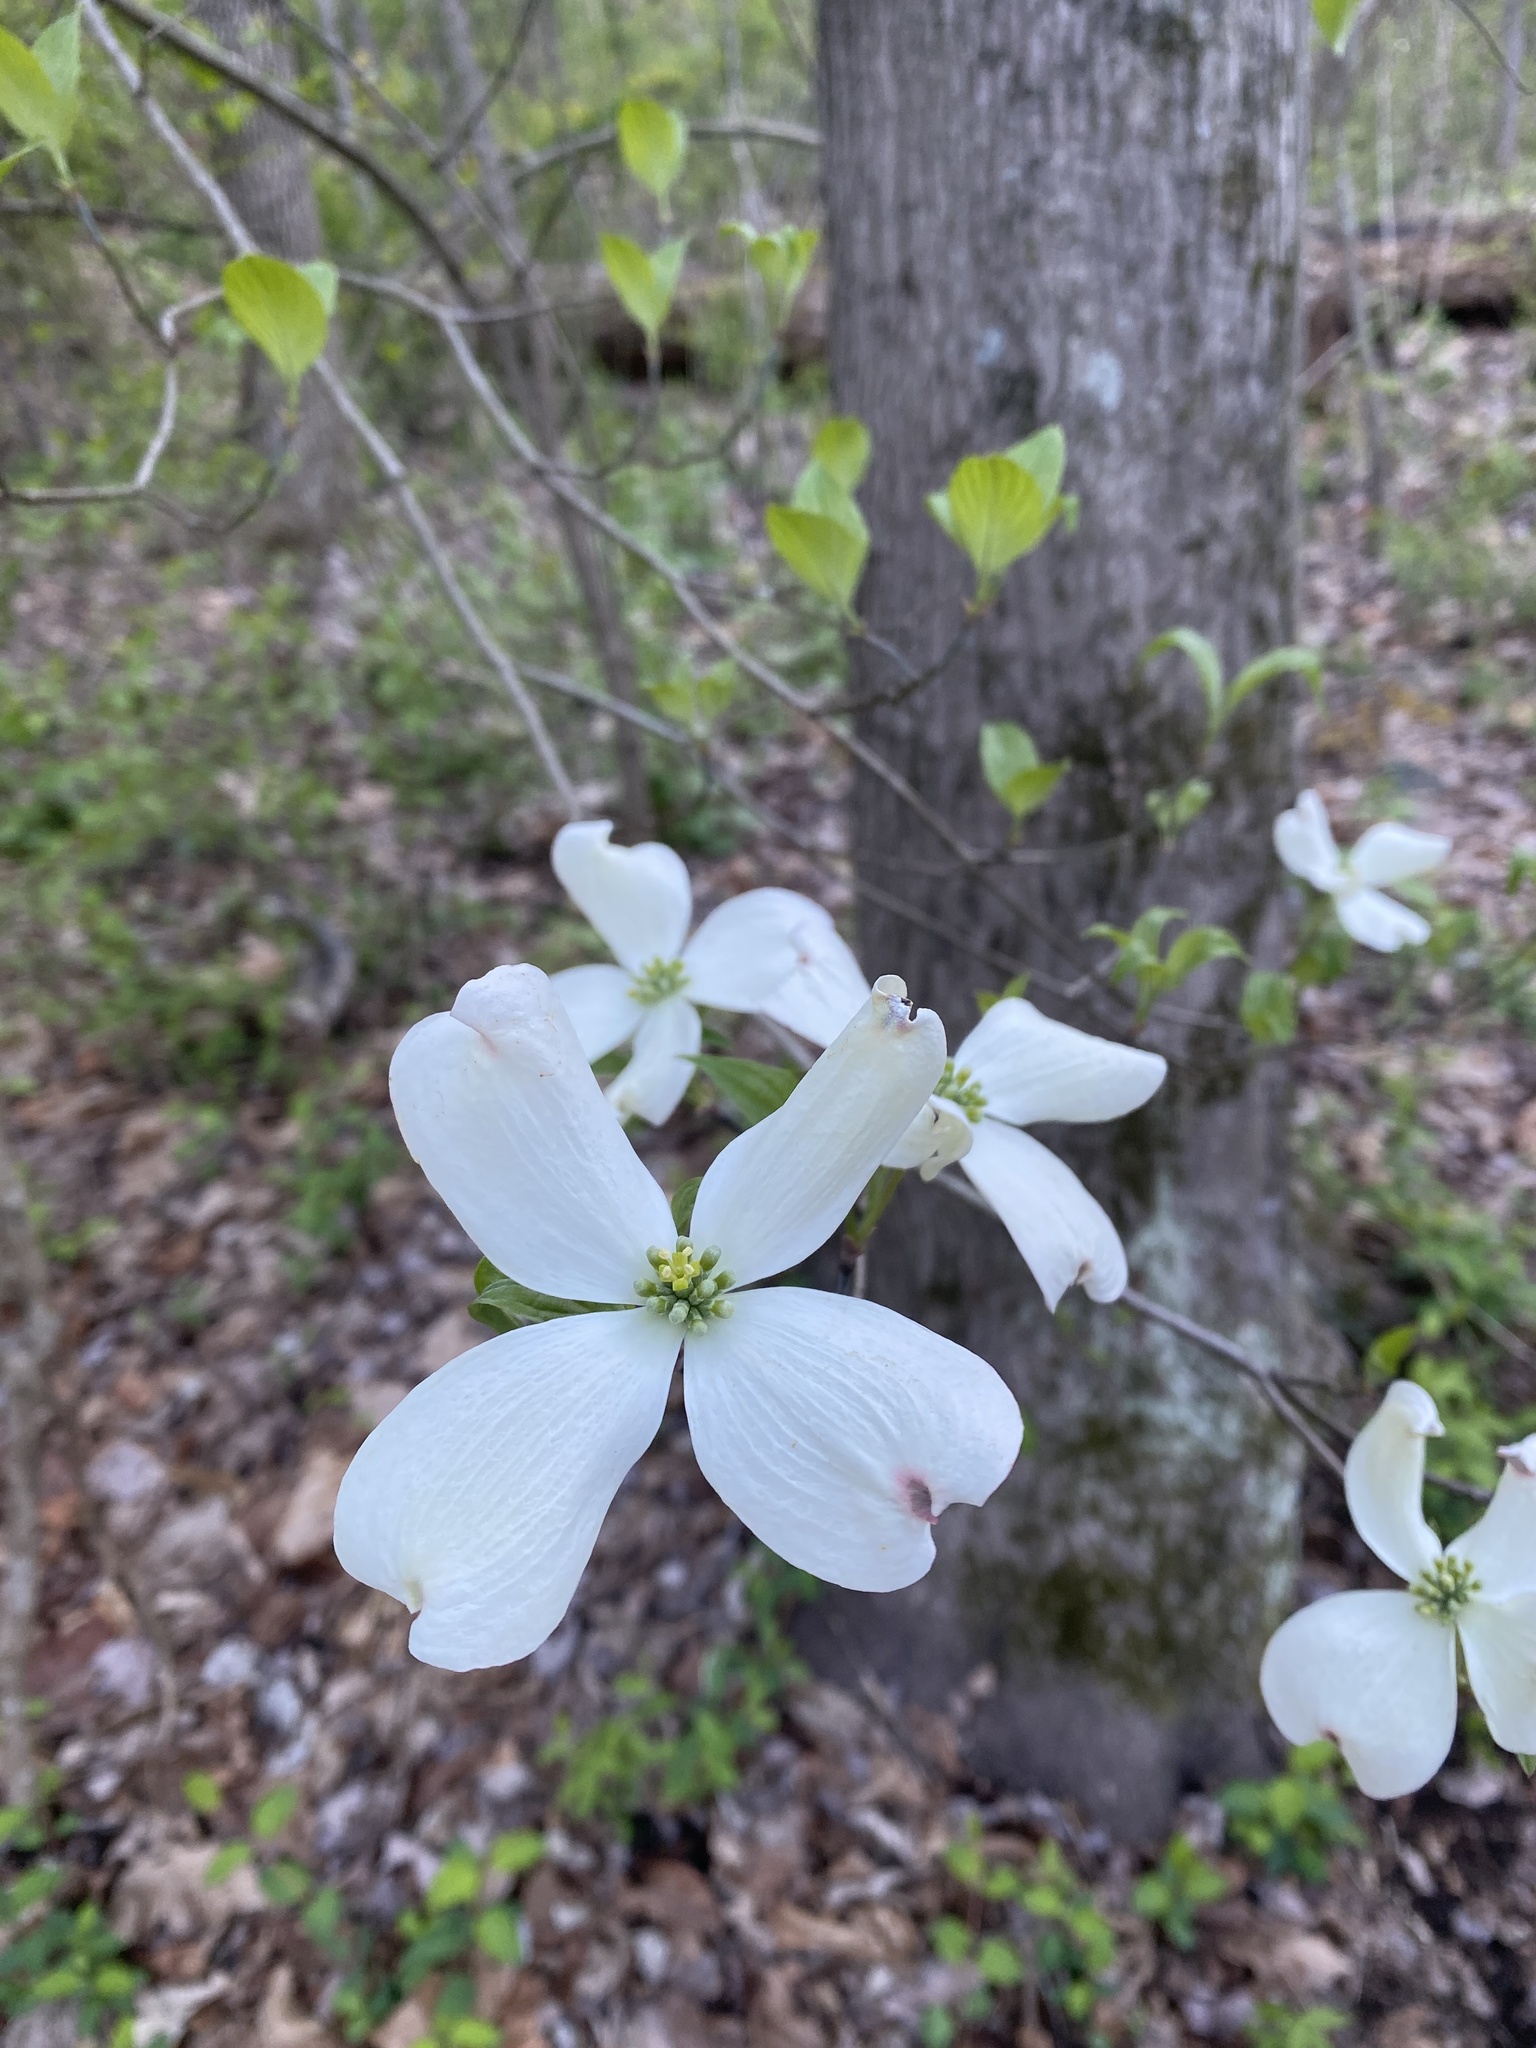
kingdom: Plantae
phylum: Tracheophyta
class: Magnoliopsida
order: Cornales
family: Cornaceae
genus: Cornus
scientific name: Cornus florida
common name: Flowering dogwood
